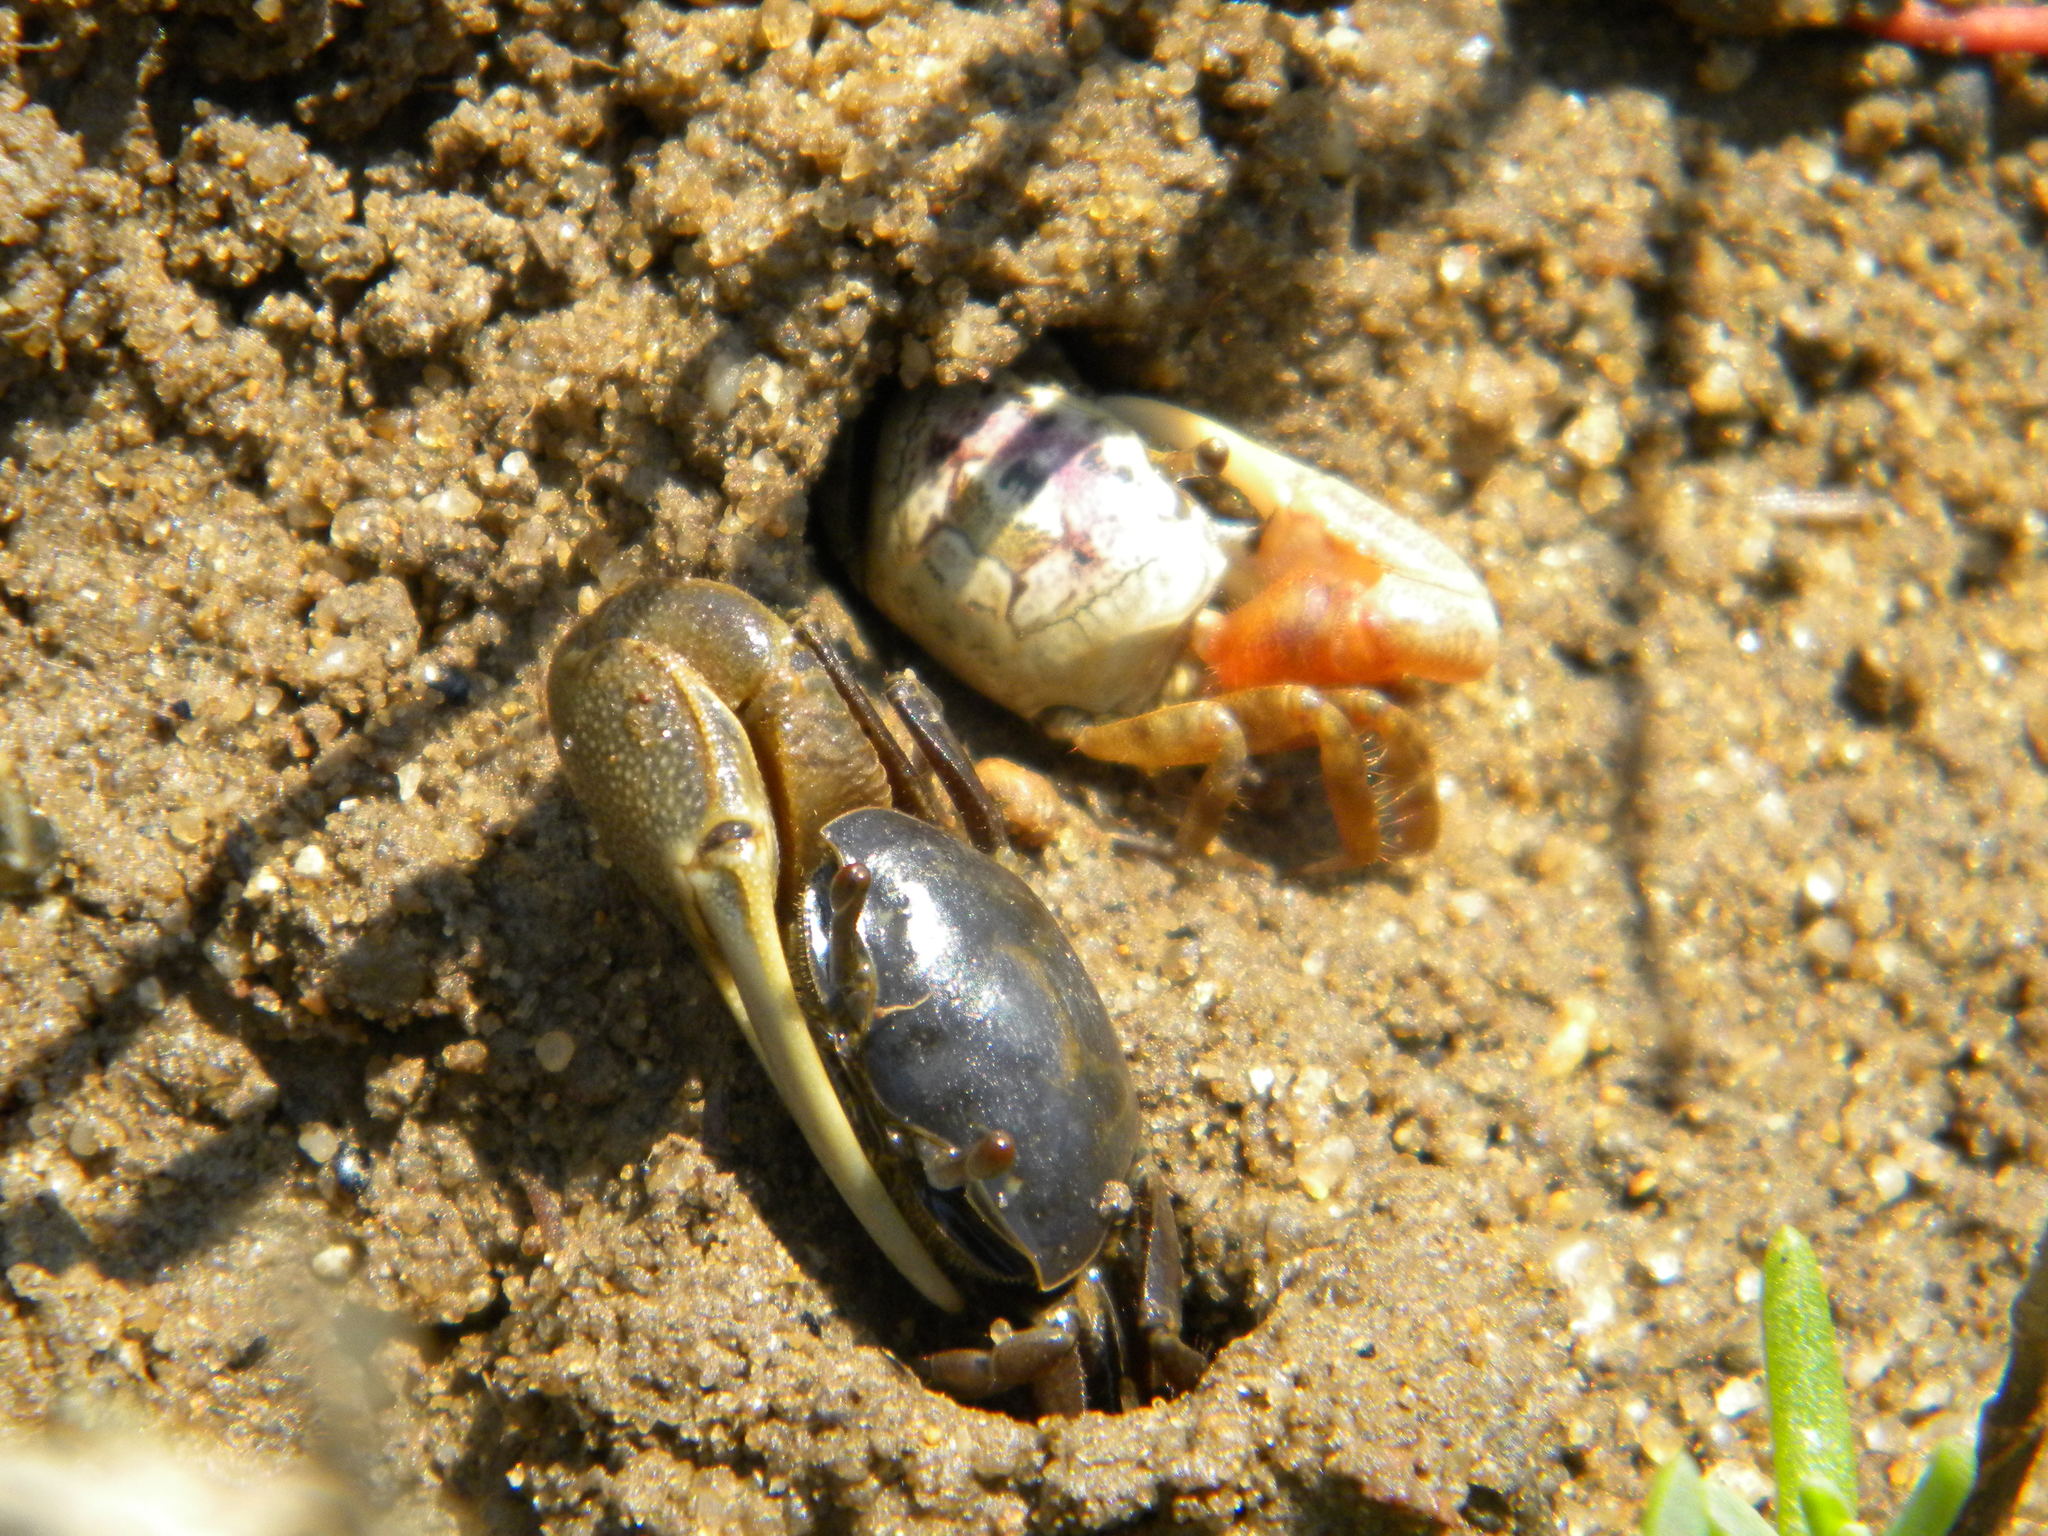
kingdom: Animalia
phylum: Arthropoda
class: Malacostraca
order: Decapoda
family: Ocypodidae
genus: Minuca
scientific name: Minuca pugnax
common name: Mud fiddler crab
